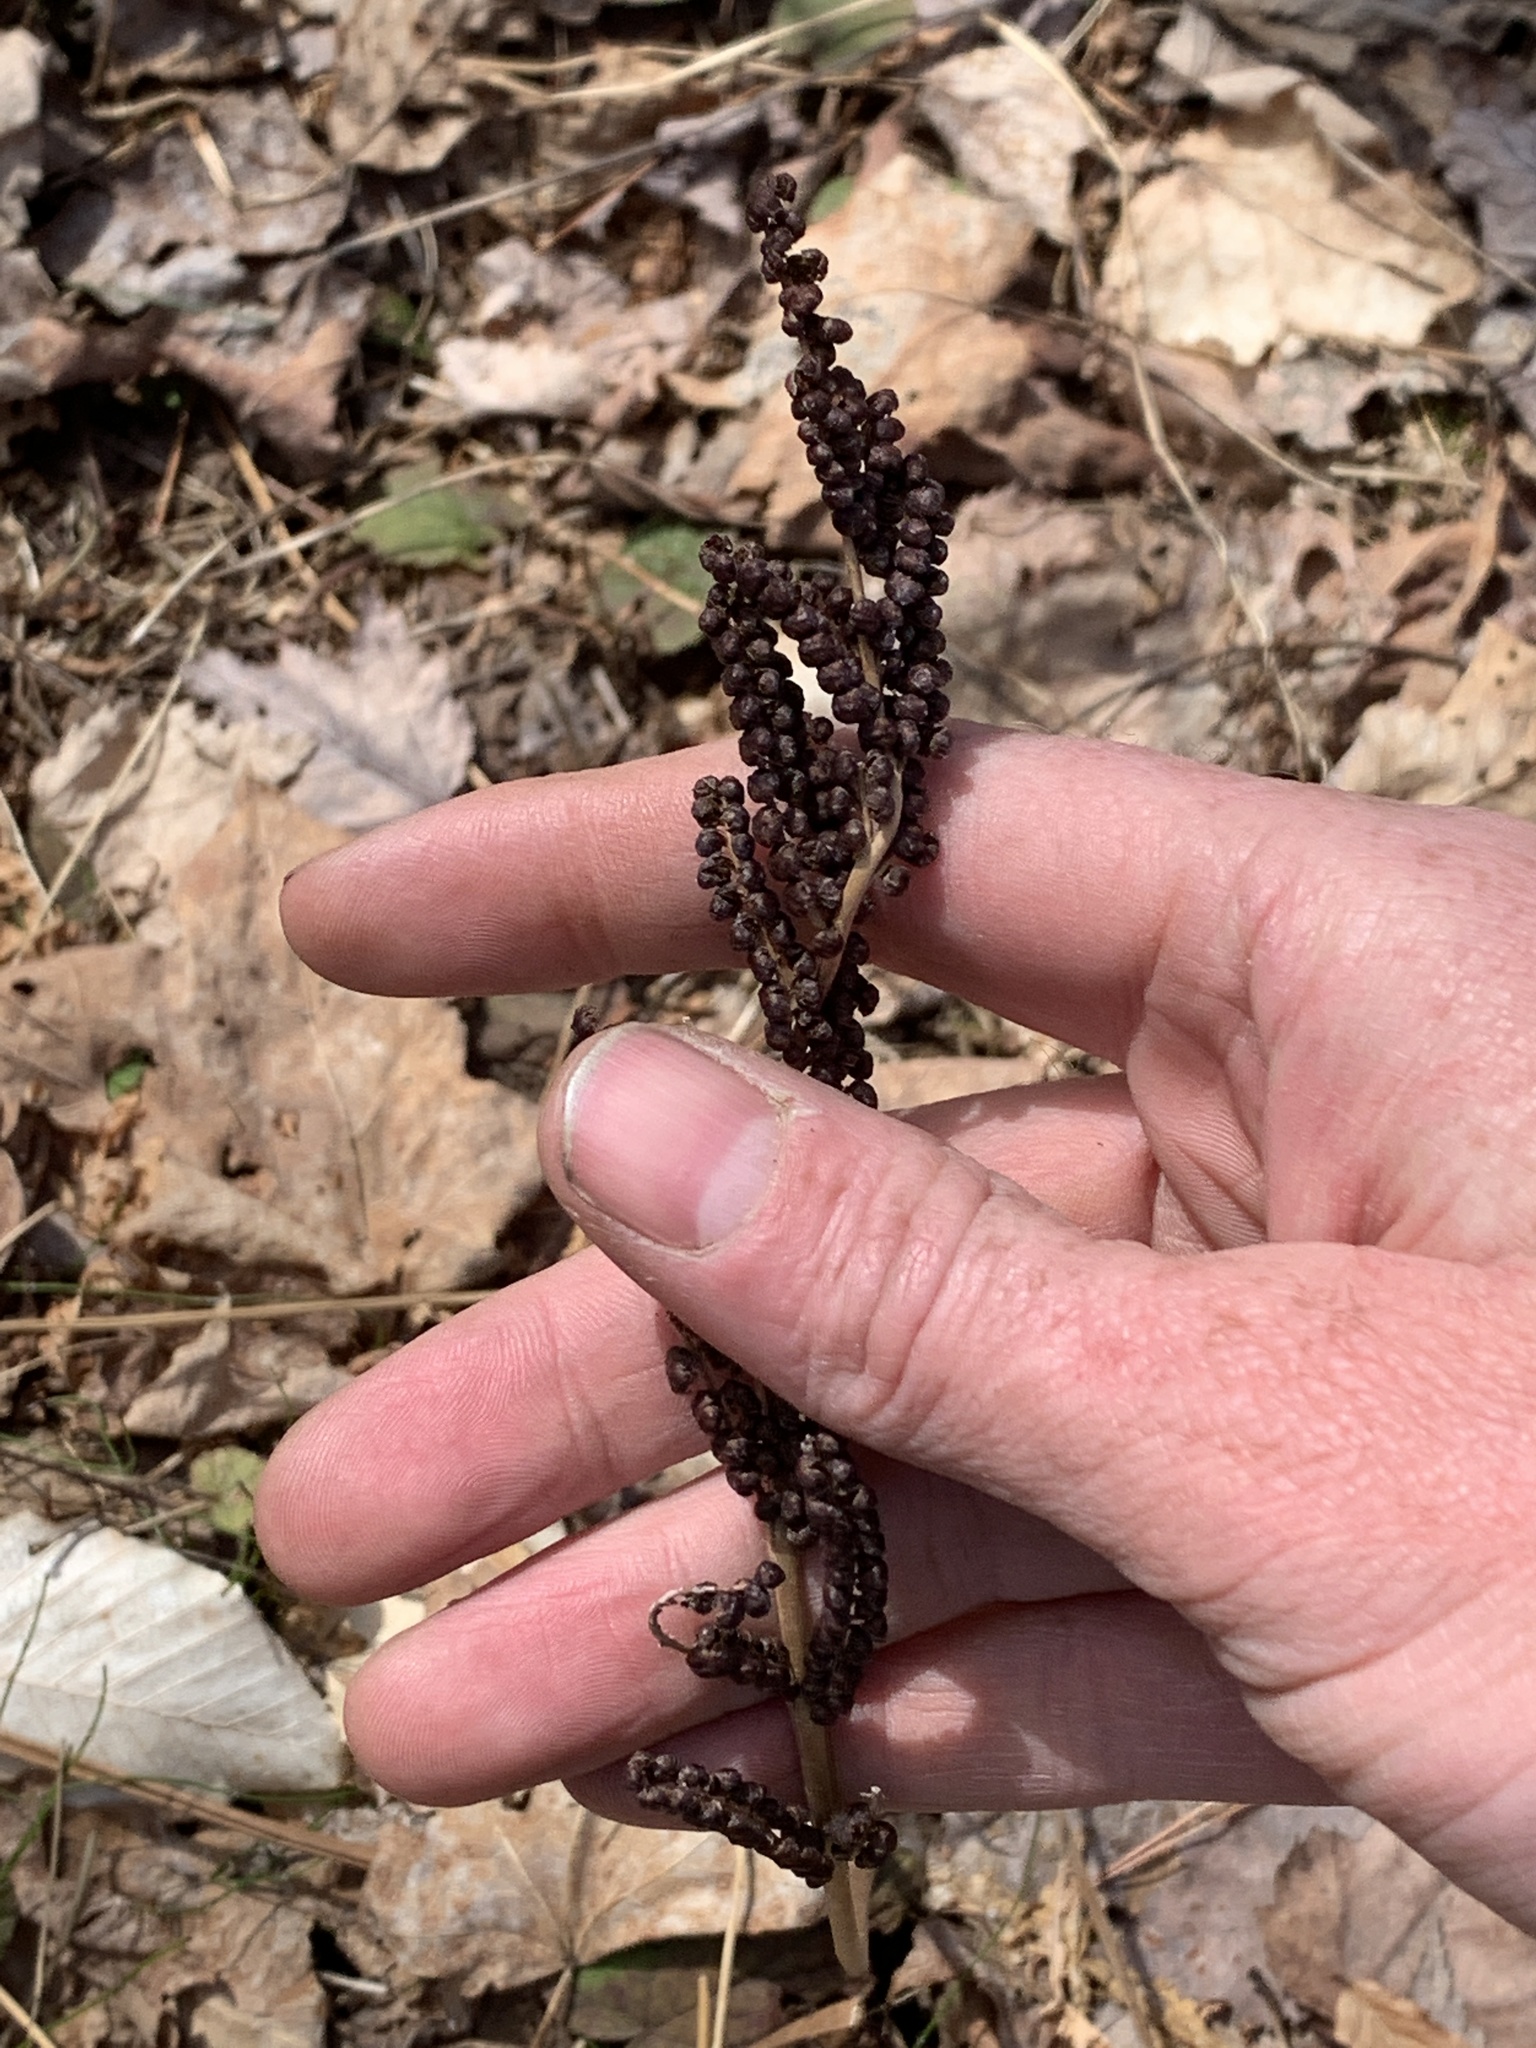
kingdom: Plantae
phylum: Tracheophyta
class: Polypodiopsida
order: Polypodiales
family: Onocleaceae
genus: Onoclea
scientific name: Onoclea sensibilis
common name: Sensitive fern
